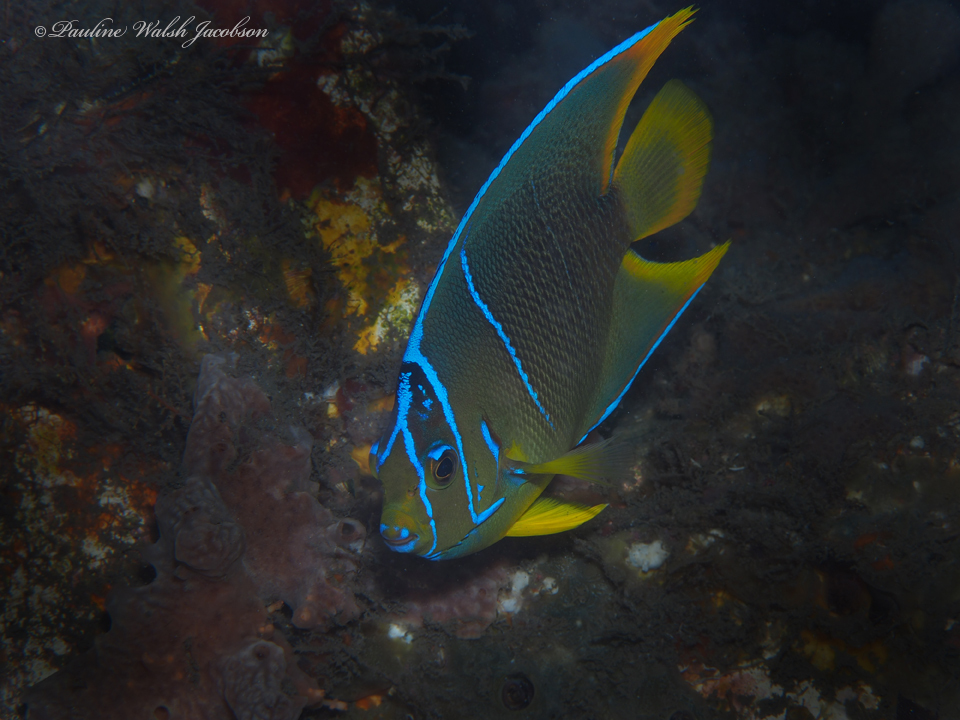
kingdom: Animalia
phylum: Chordata
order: Perciformes
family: Pomacanthidae
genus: Holacanthus
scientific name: Holacanthus ciliaris
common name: Queen angelfish
